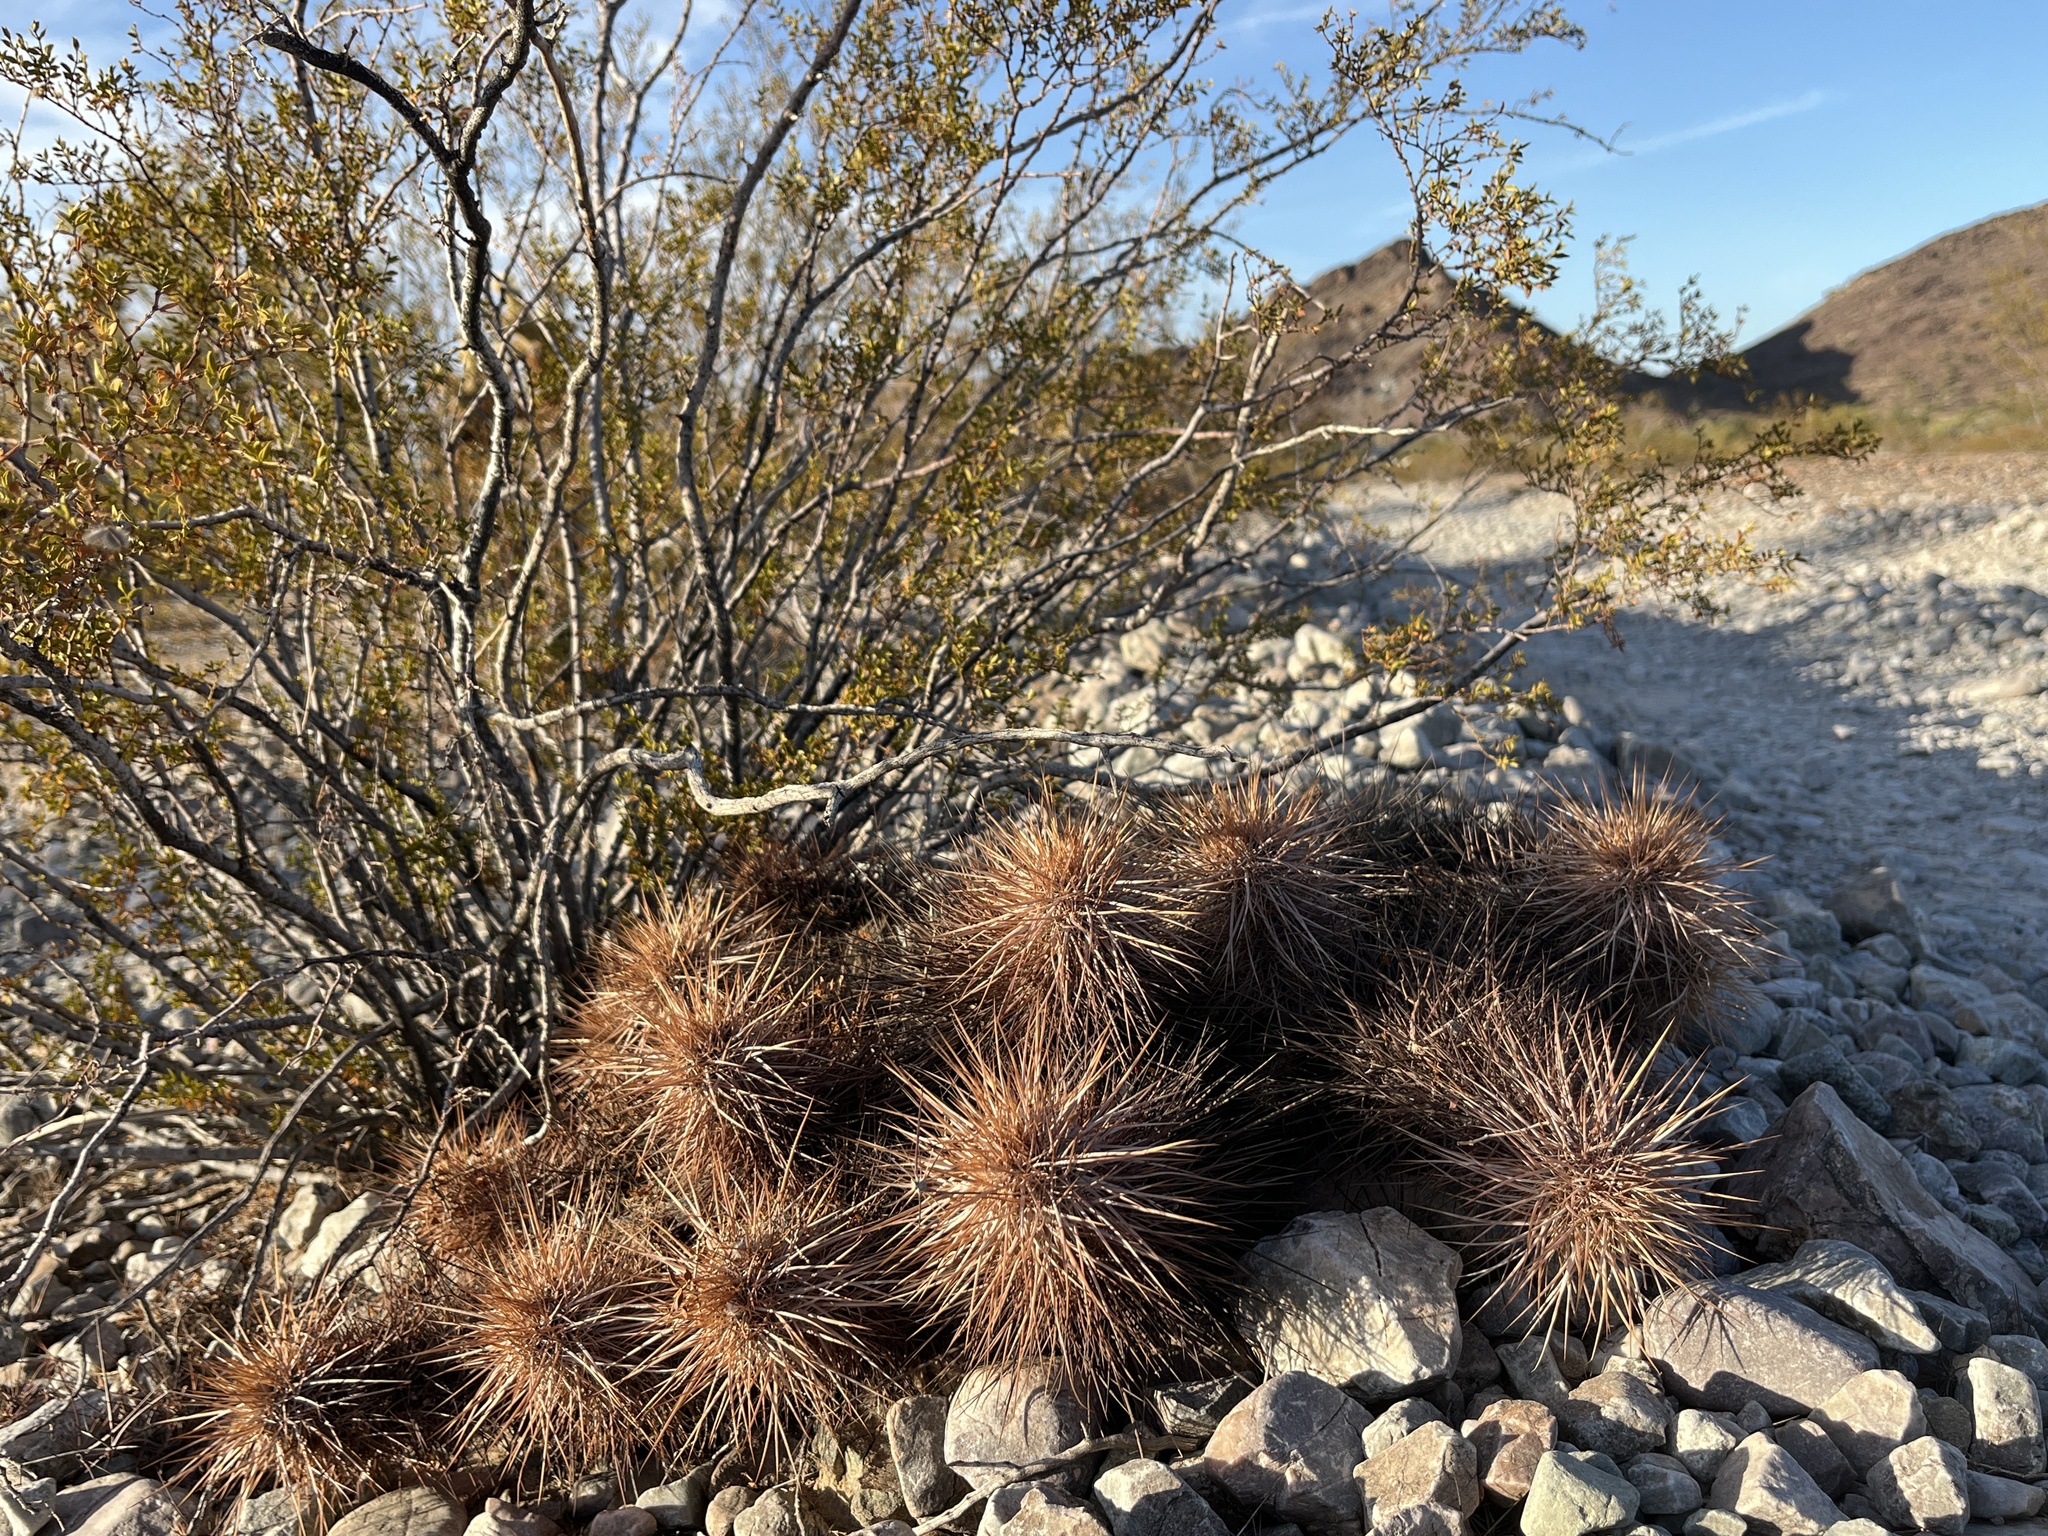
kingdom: Plantae
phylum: Tracheophyta
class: Magnoliopsida
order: Caryophyllales
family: Cactaceae
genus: Echinocereus
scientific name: Echinocereus engelmannii
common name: Engelmann's hedgehog cactus
